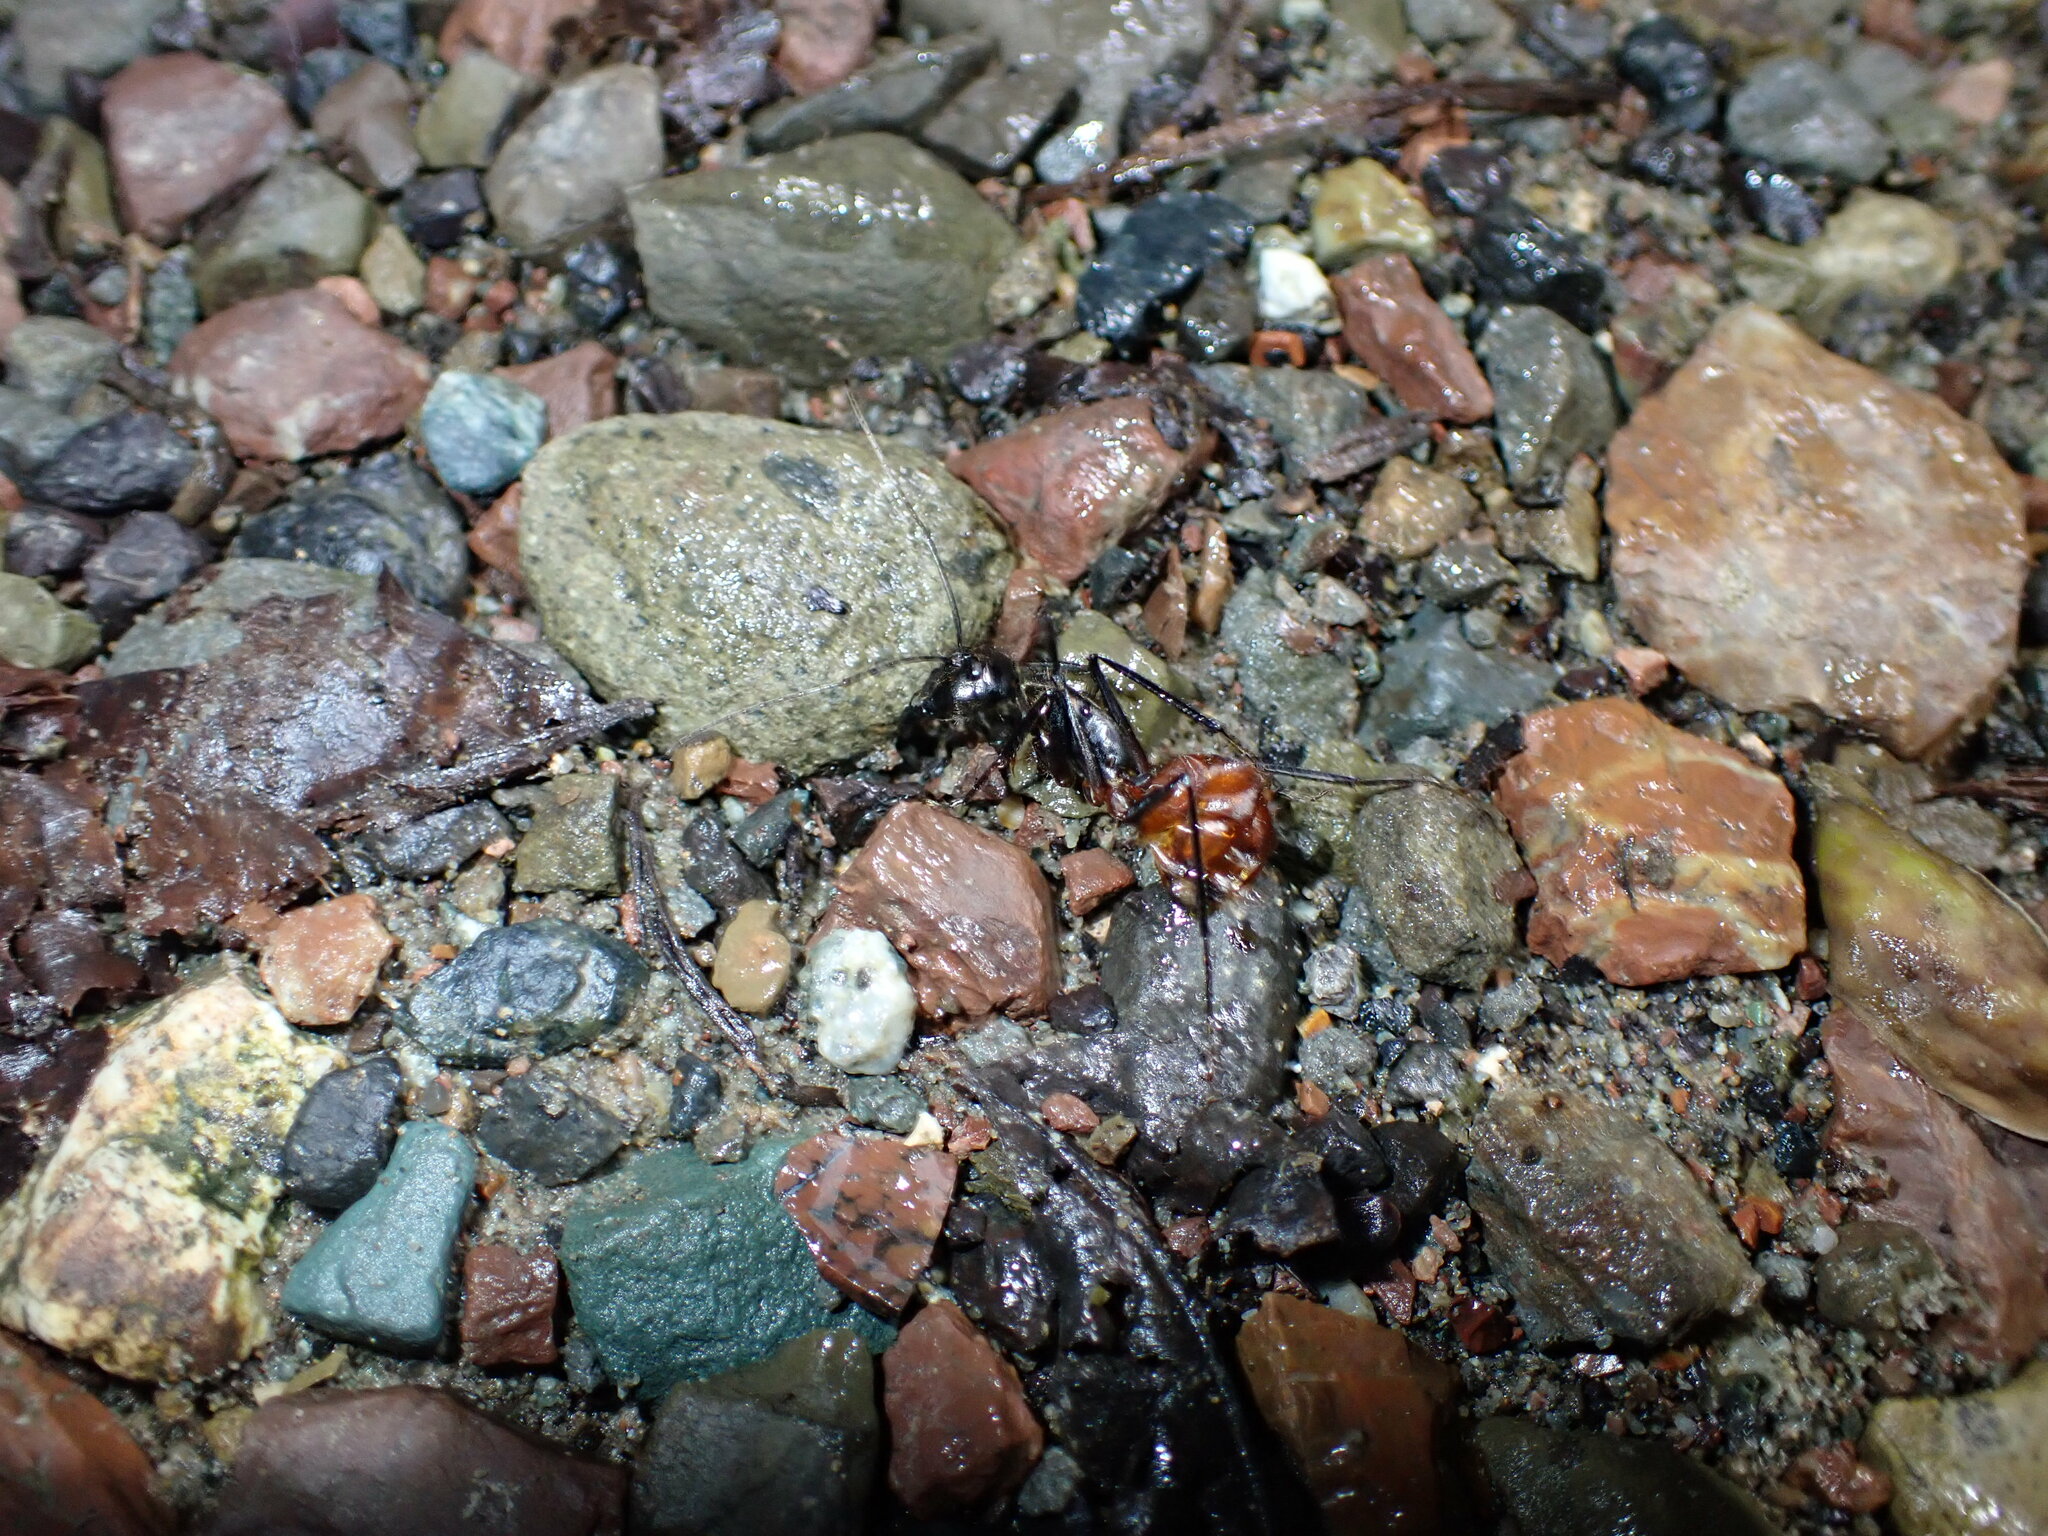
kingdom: Animalia
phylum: Arthropoda
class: Insecta
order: Hymenoptera
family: Formicidae
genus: Dinomyrmex
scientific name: Dinomyrmex
